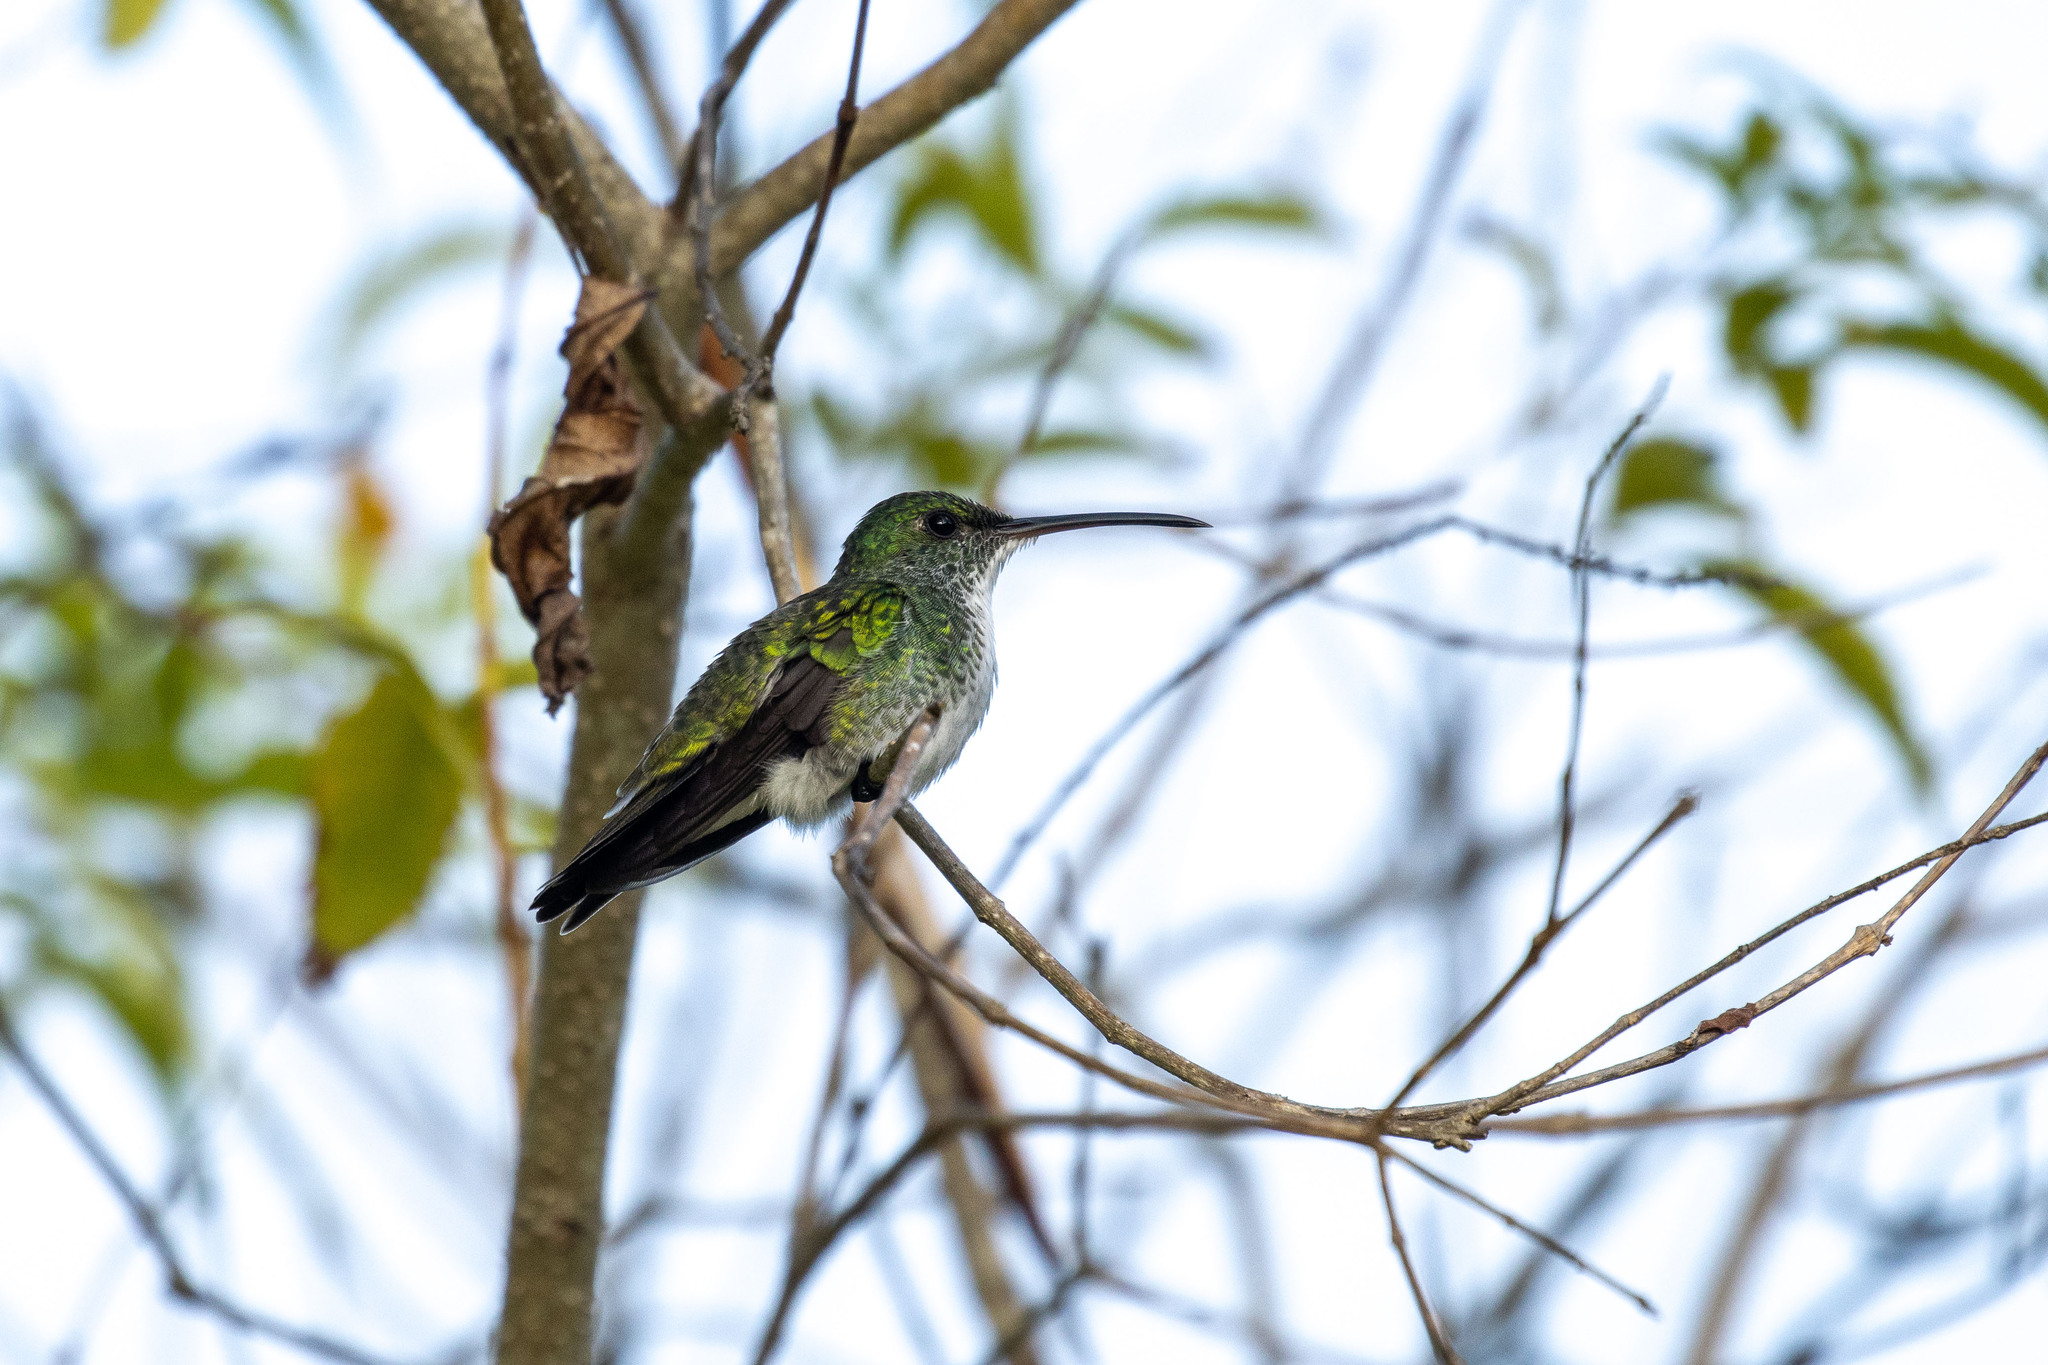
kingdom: Animalia
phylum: Chordata
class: Aves
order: Apodiformes
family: Trochilidae
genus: Chrysuronia
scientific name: Chrysuronia leucogaster
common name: Plain-bellied emerald
